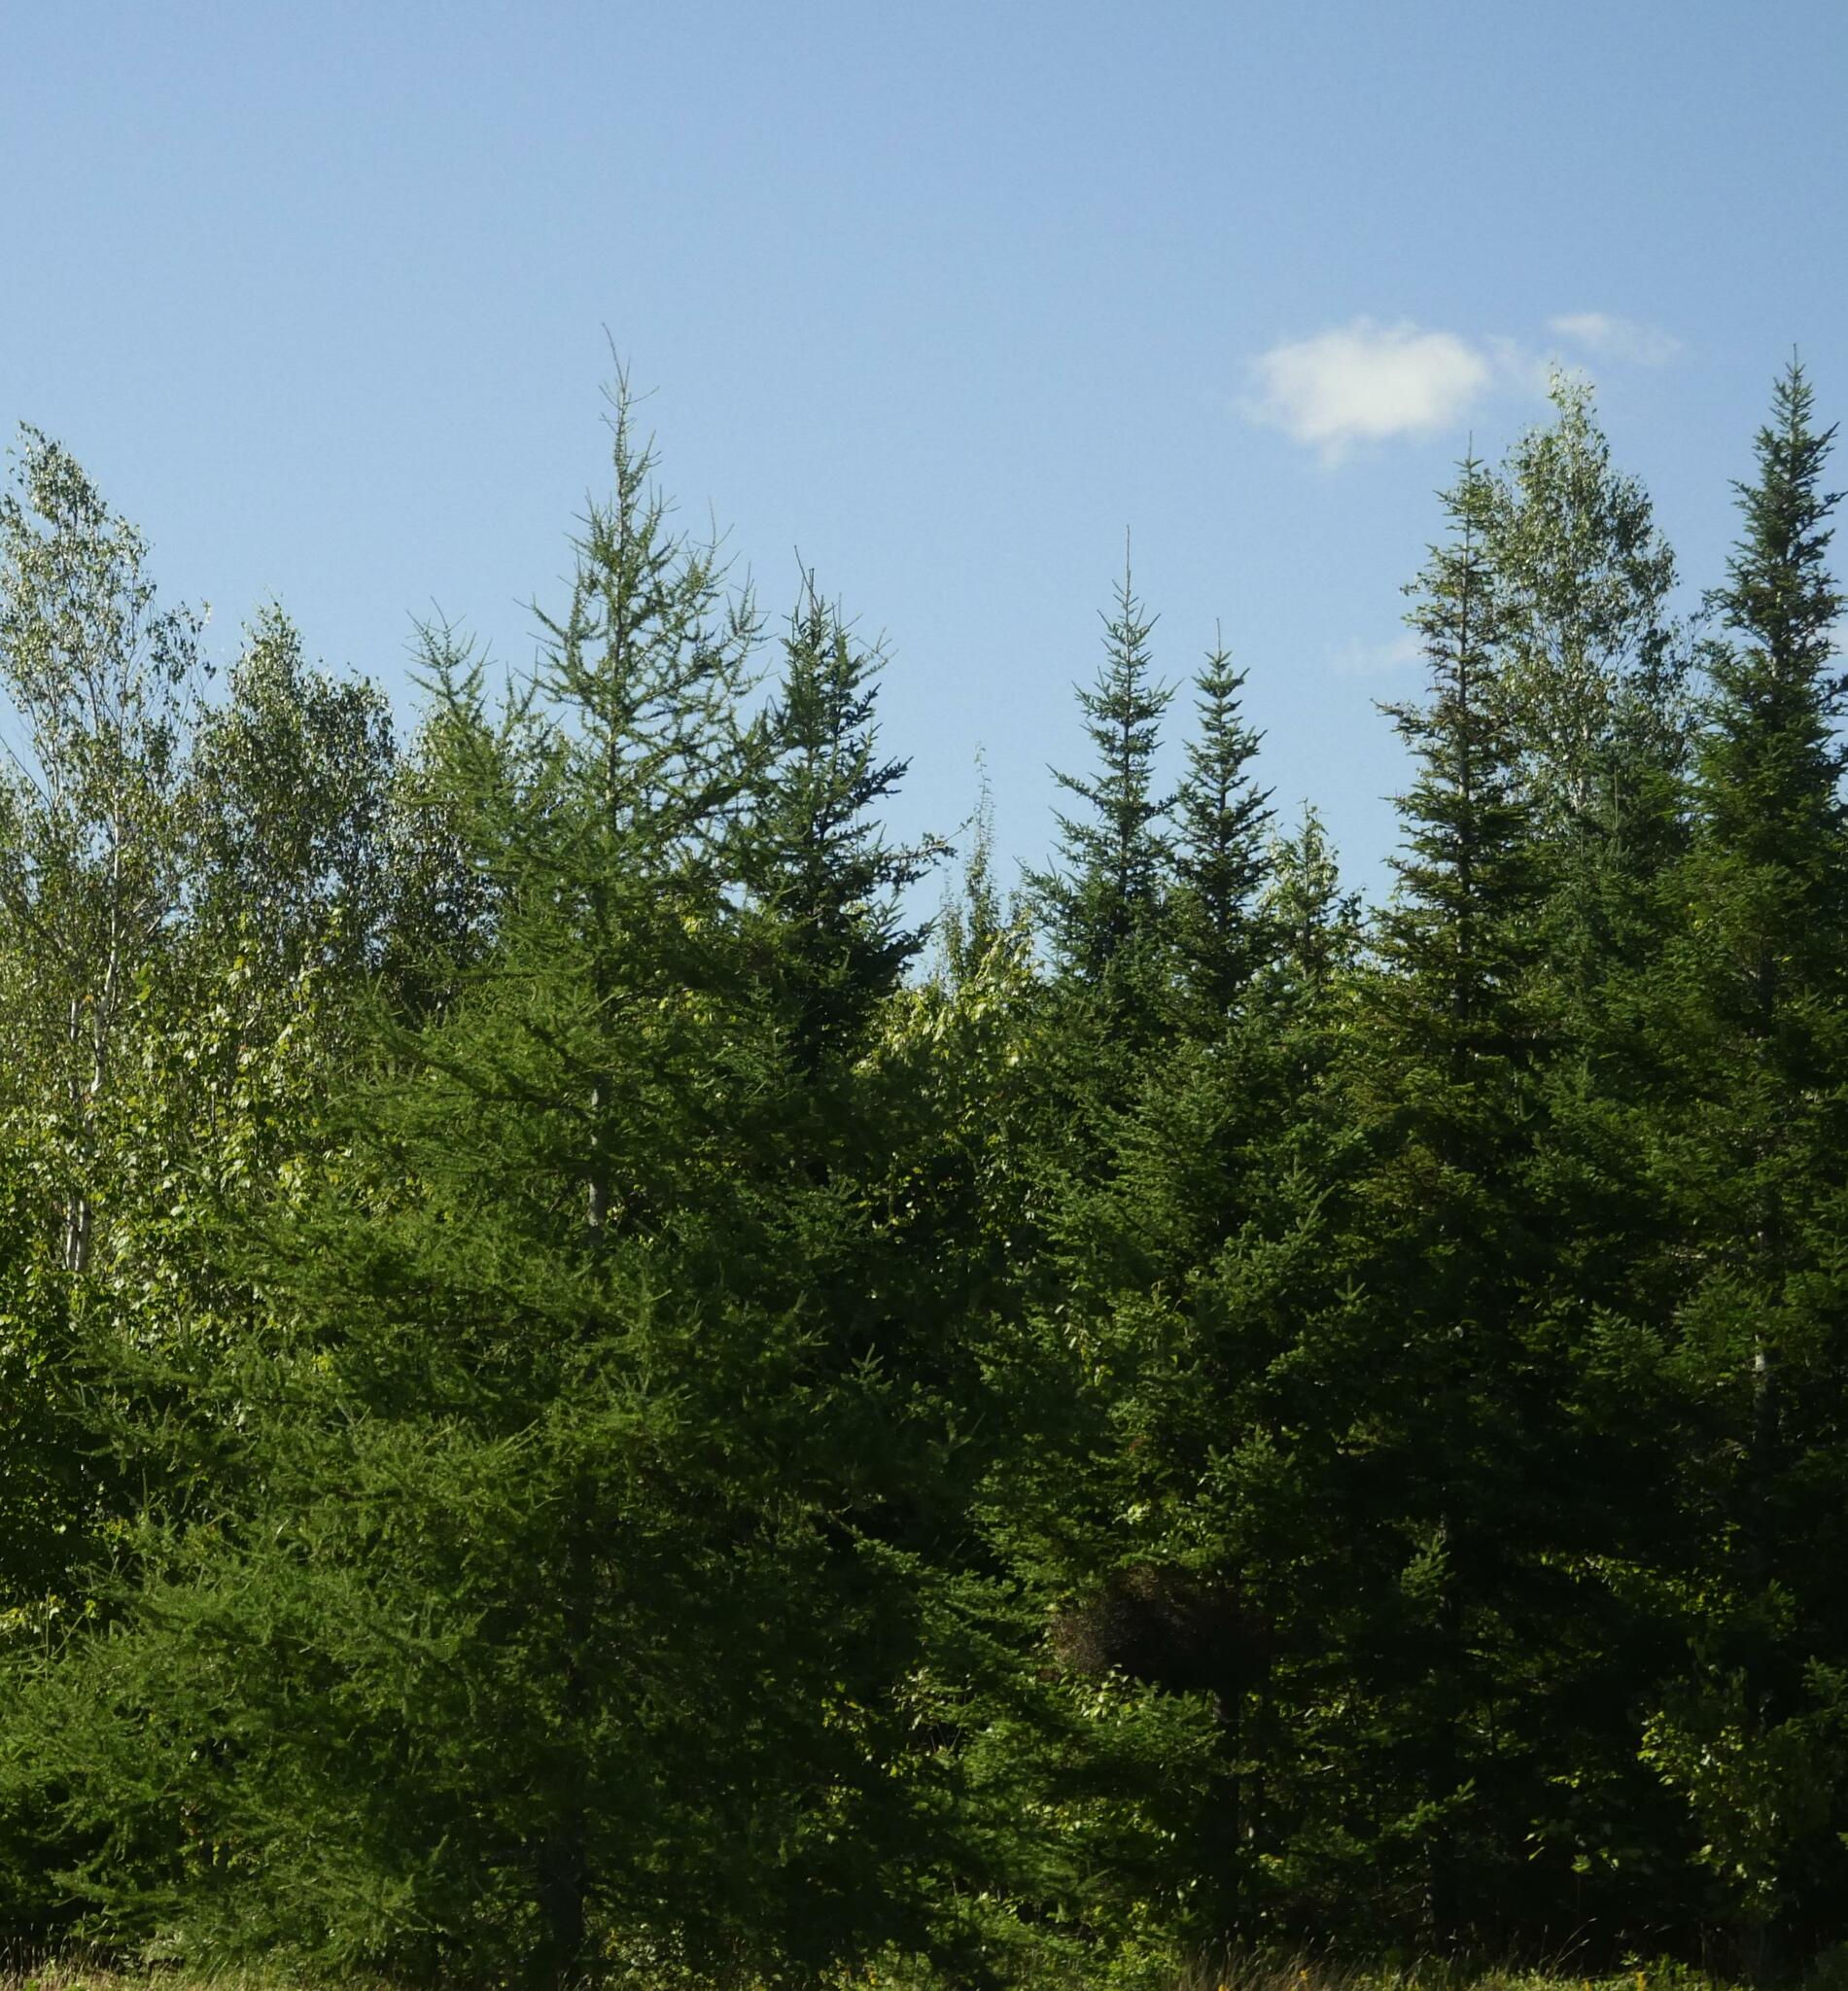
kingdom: Plantae
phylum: Tracheophyta
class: Pinopsida
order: Pinales
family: Pinaceae
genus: Larix
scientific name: Larix laricina
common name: American larch
